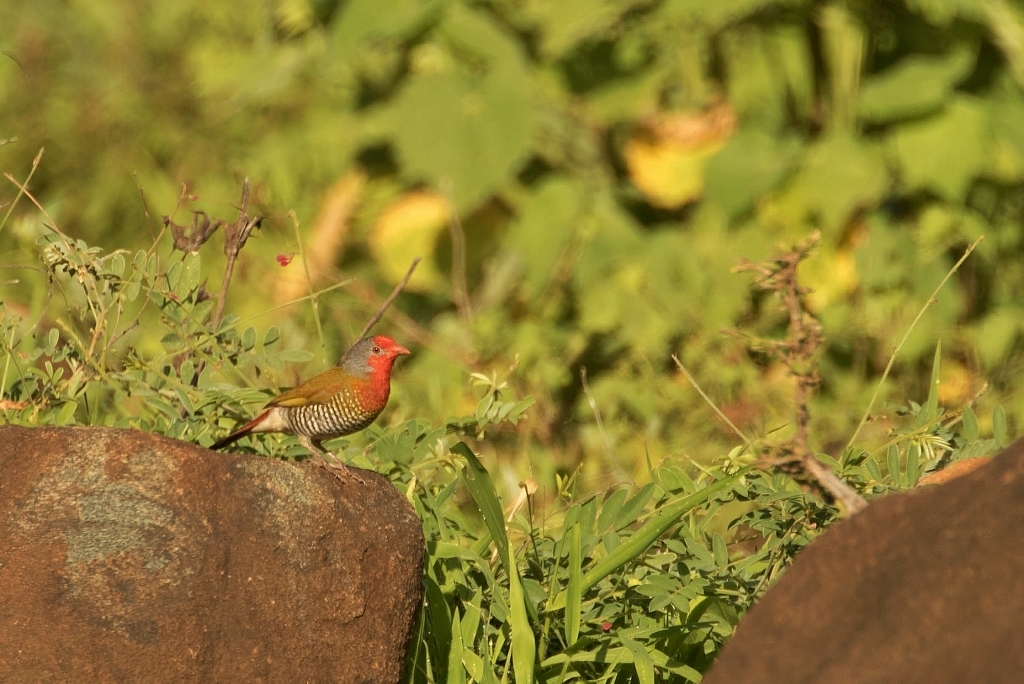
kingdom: Animalia
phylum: Chordata
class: Aves
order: Passeriformes
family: Estrildidae
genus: Pytilia
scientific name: Pytilia melba
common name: Green-winged pytilia
